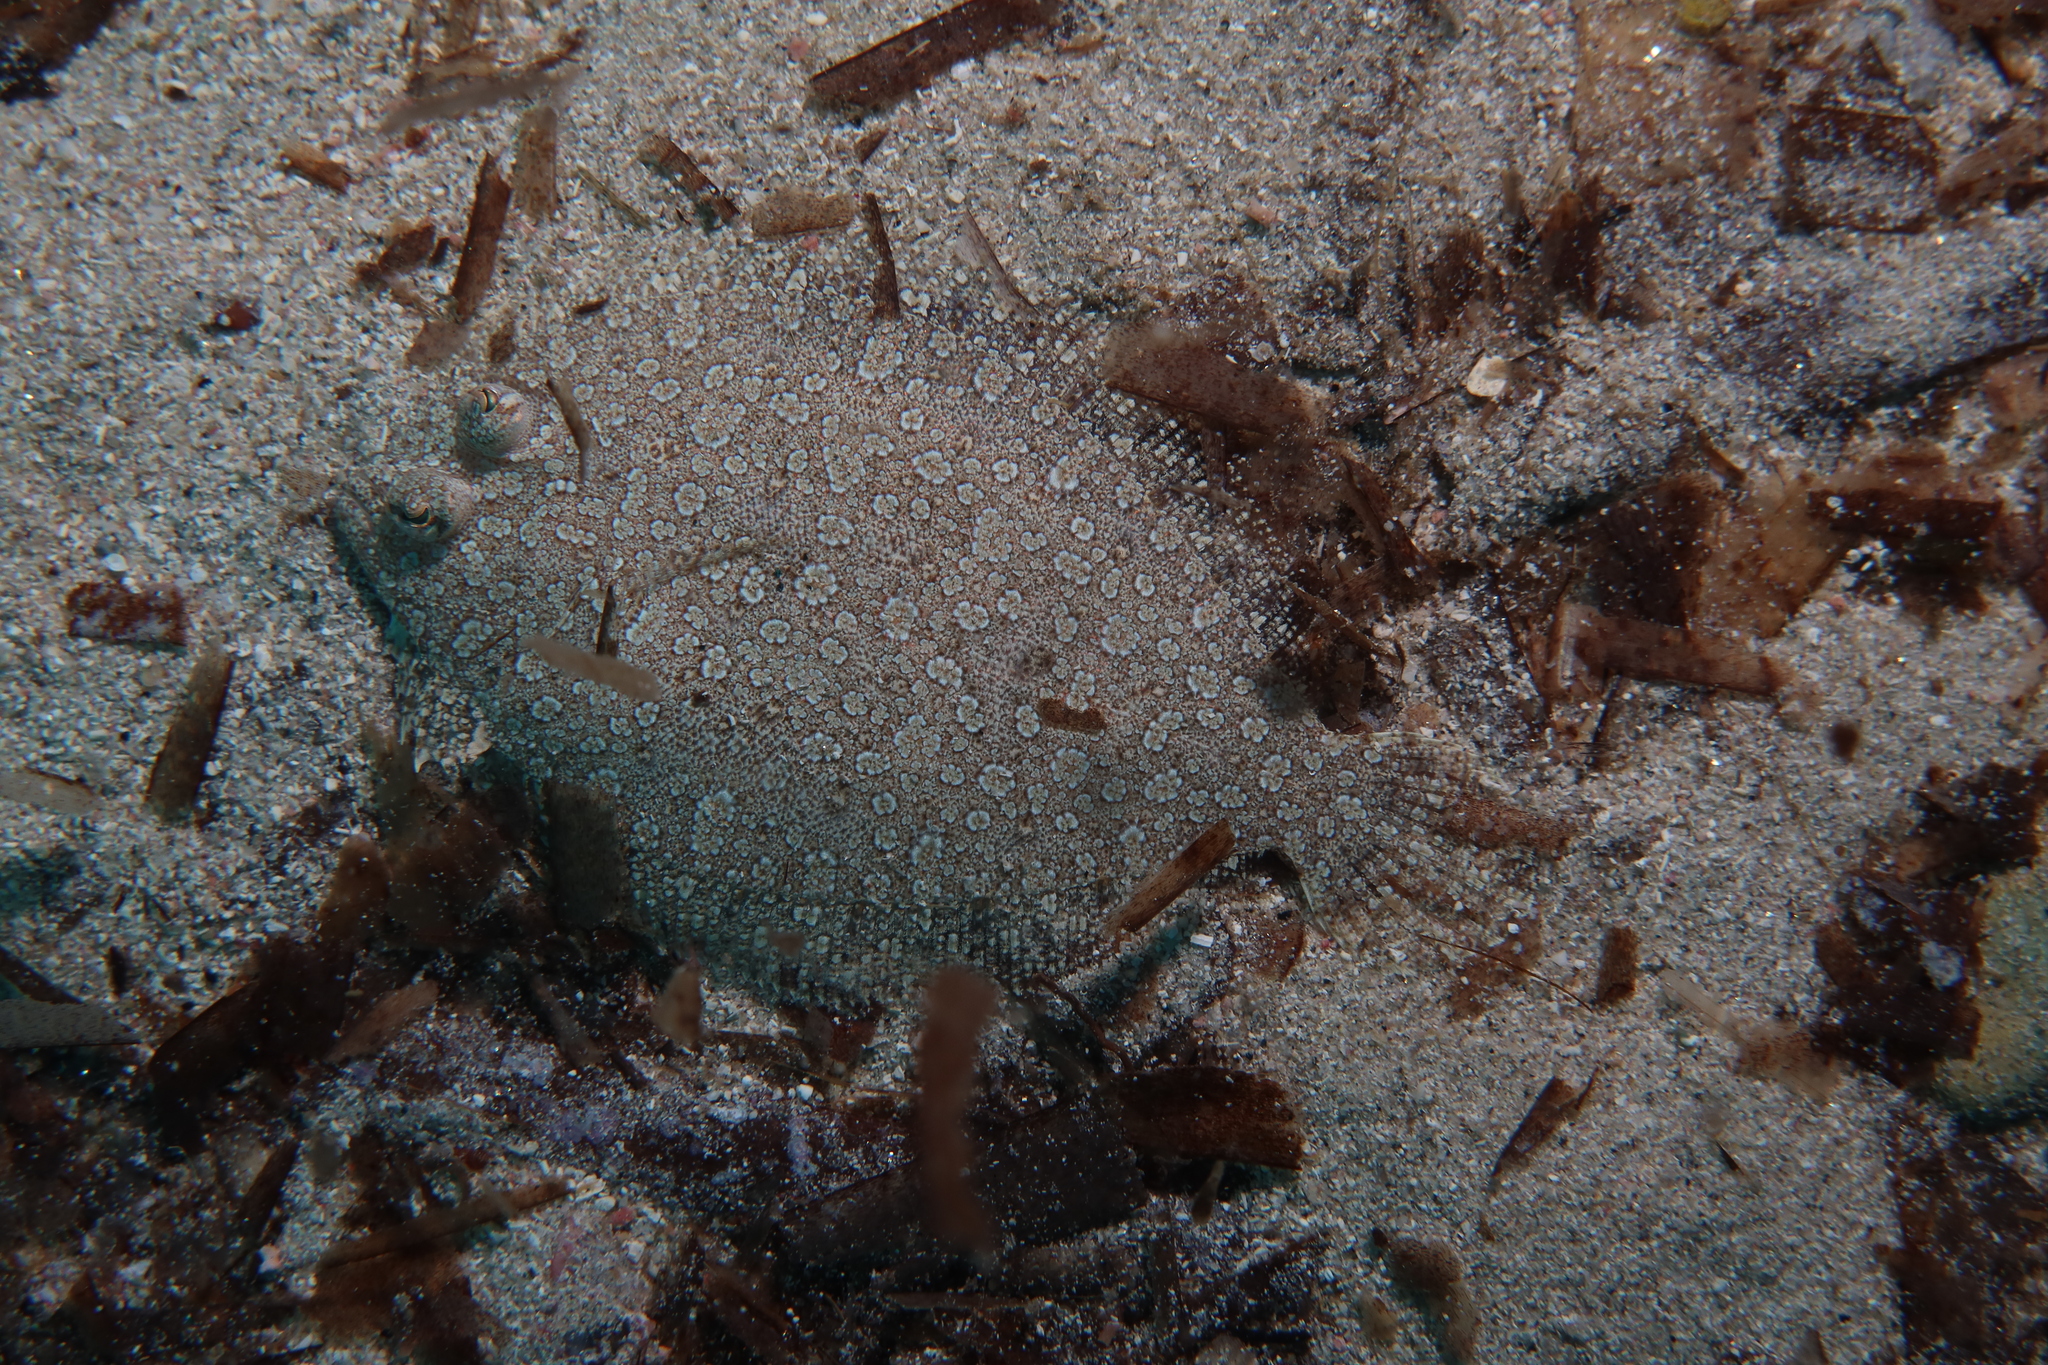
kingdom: Animalia
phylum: Chordata
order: Pleuronectiformes
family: Bothidae
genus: Bothus
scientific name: Bothus podas
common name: Wide-eyed flounder
